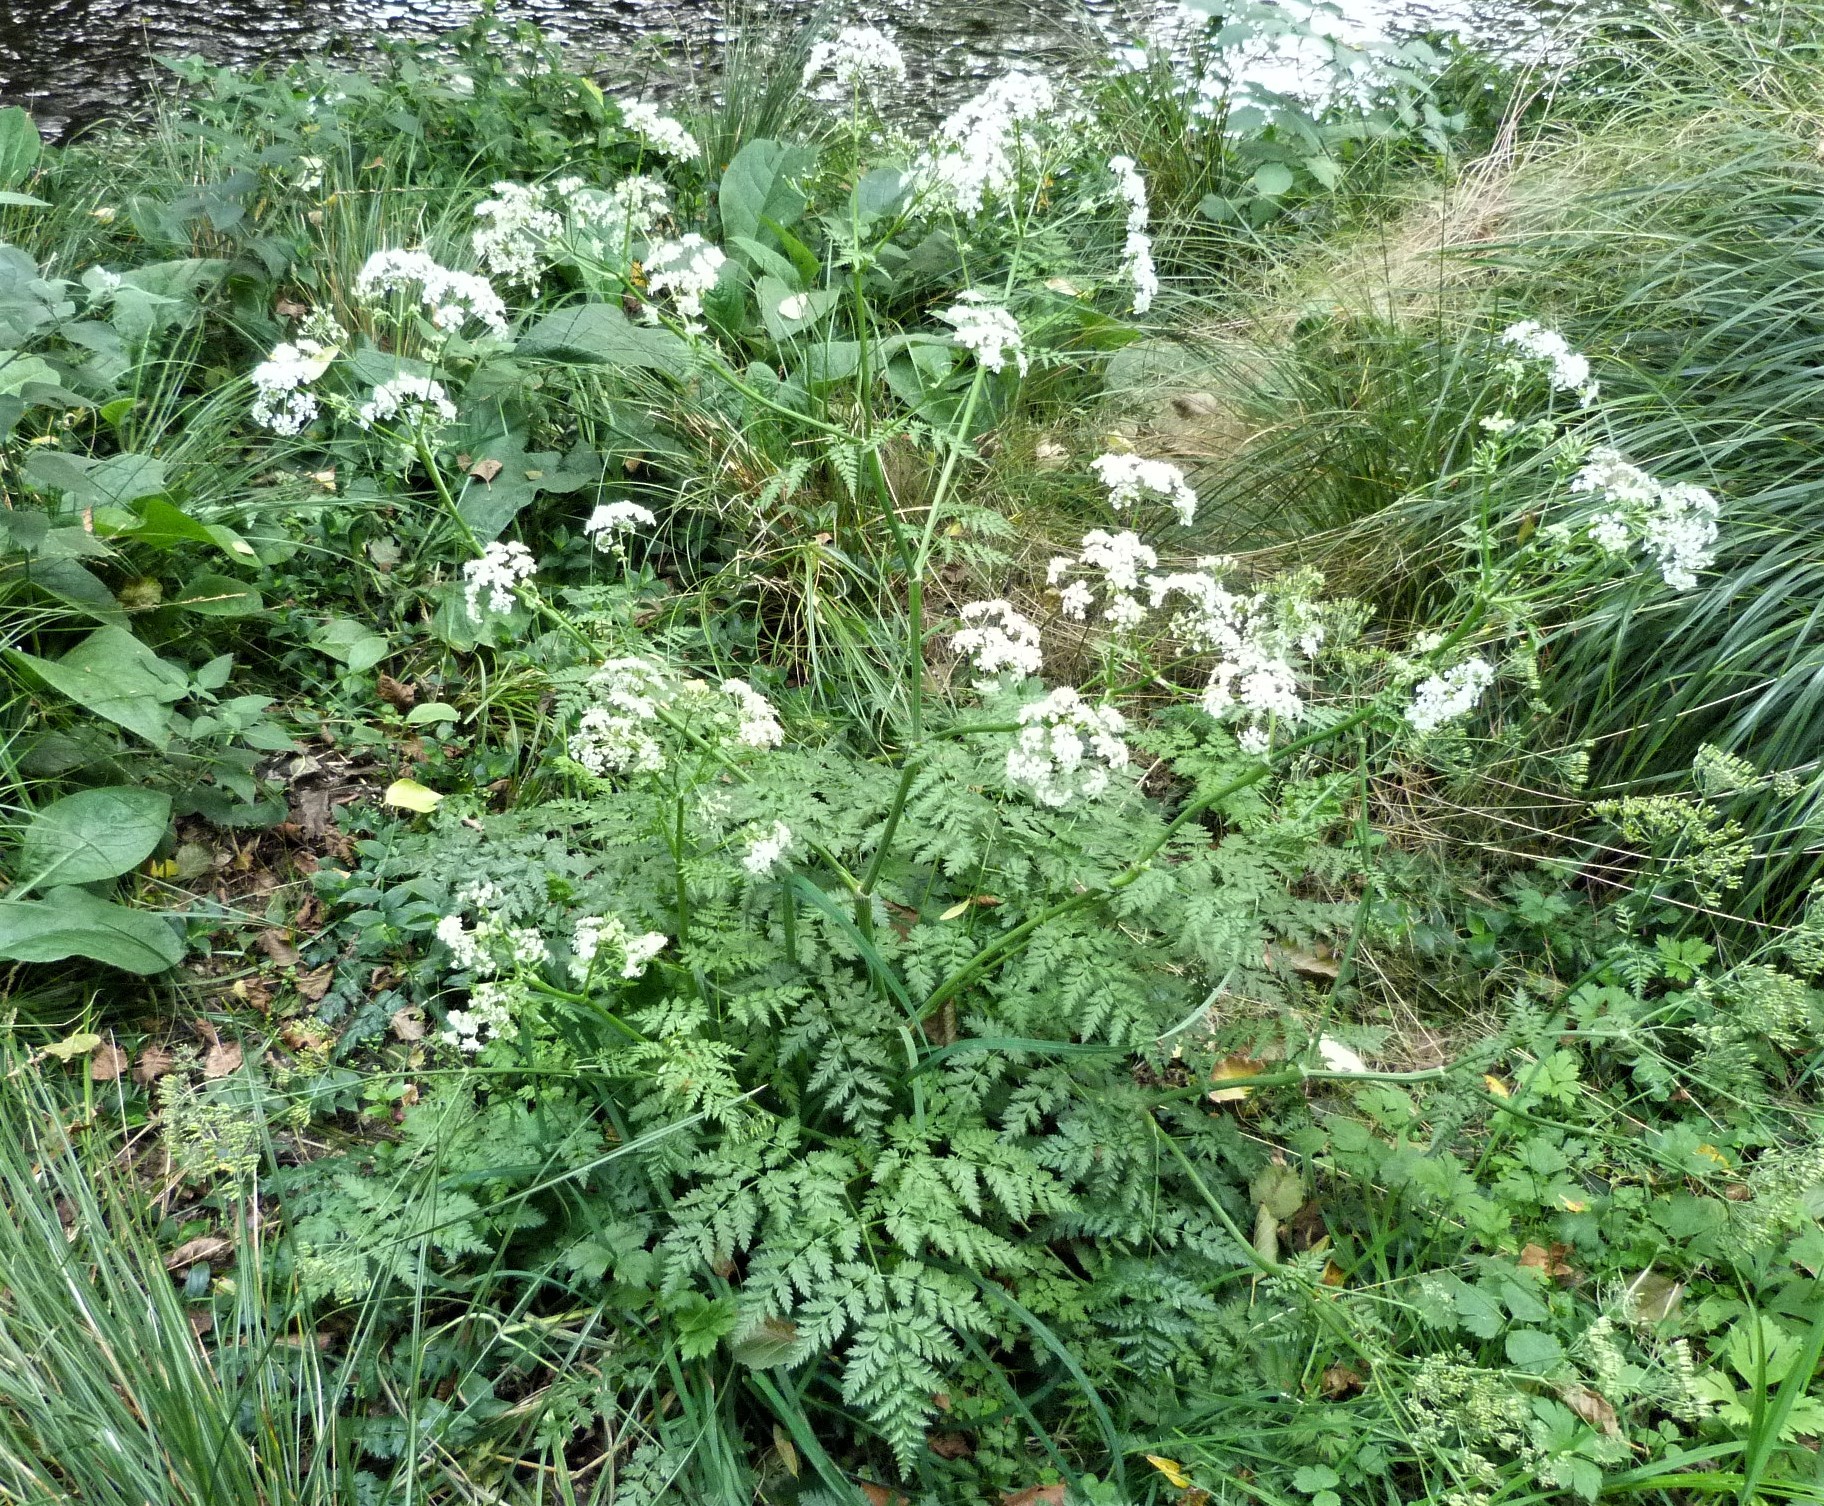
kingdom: Plantae
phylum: Tracheophyta
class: Magnoliopsida
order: Apiales
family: Apiaceae
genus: Anthriscus
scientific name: Anthriscus sylvestris
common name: Cow parsley
